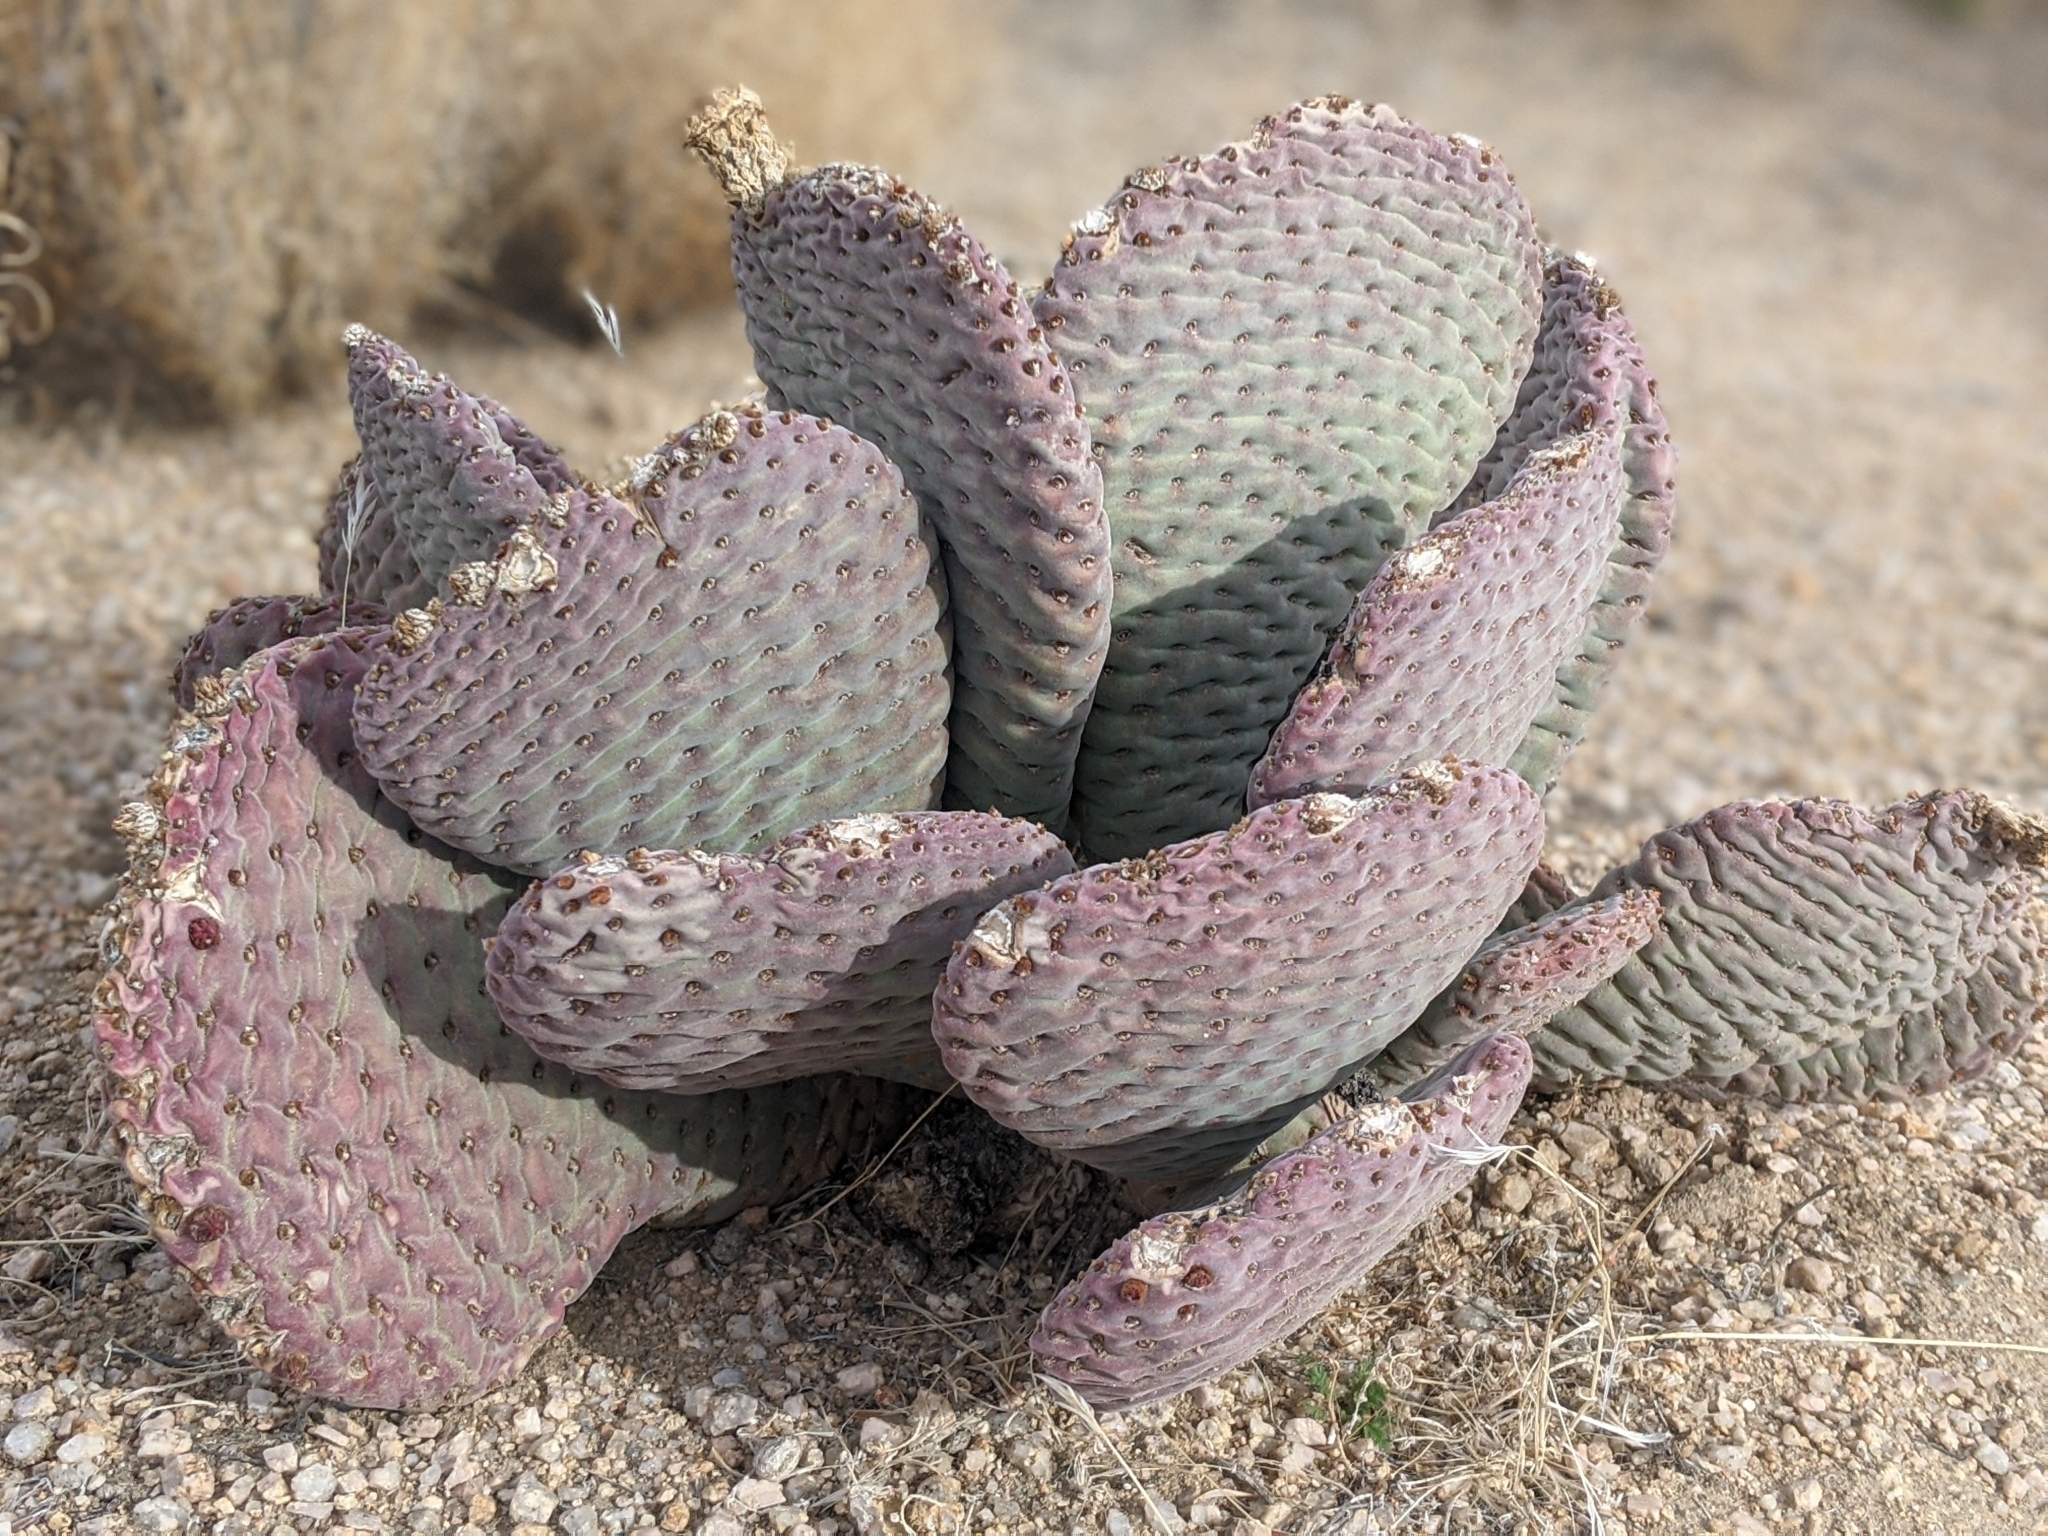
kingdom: Plantae
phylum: Tracheophyta
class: Magnoliopsida
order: Caryophyllales
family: Cactaceae
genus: Opuntia
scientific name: Opuntia basilaris
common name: Beavertail prickly-pear
